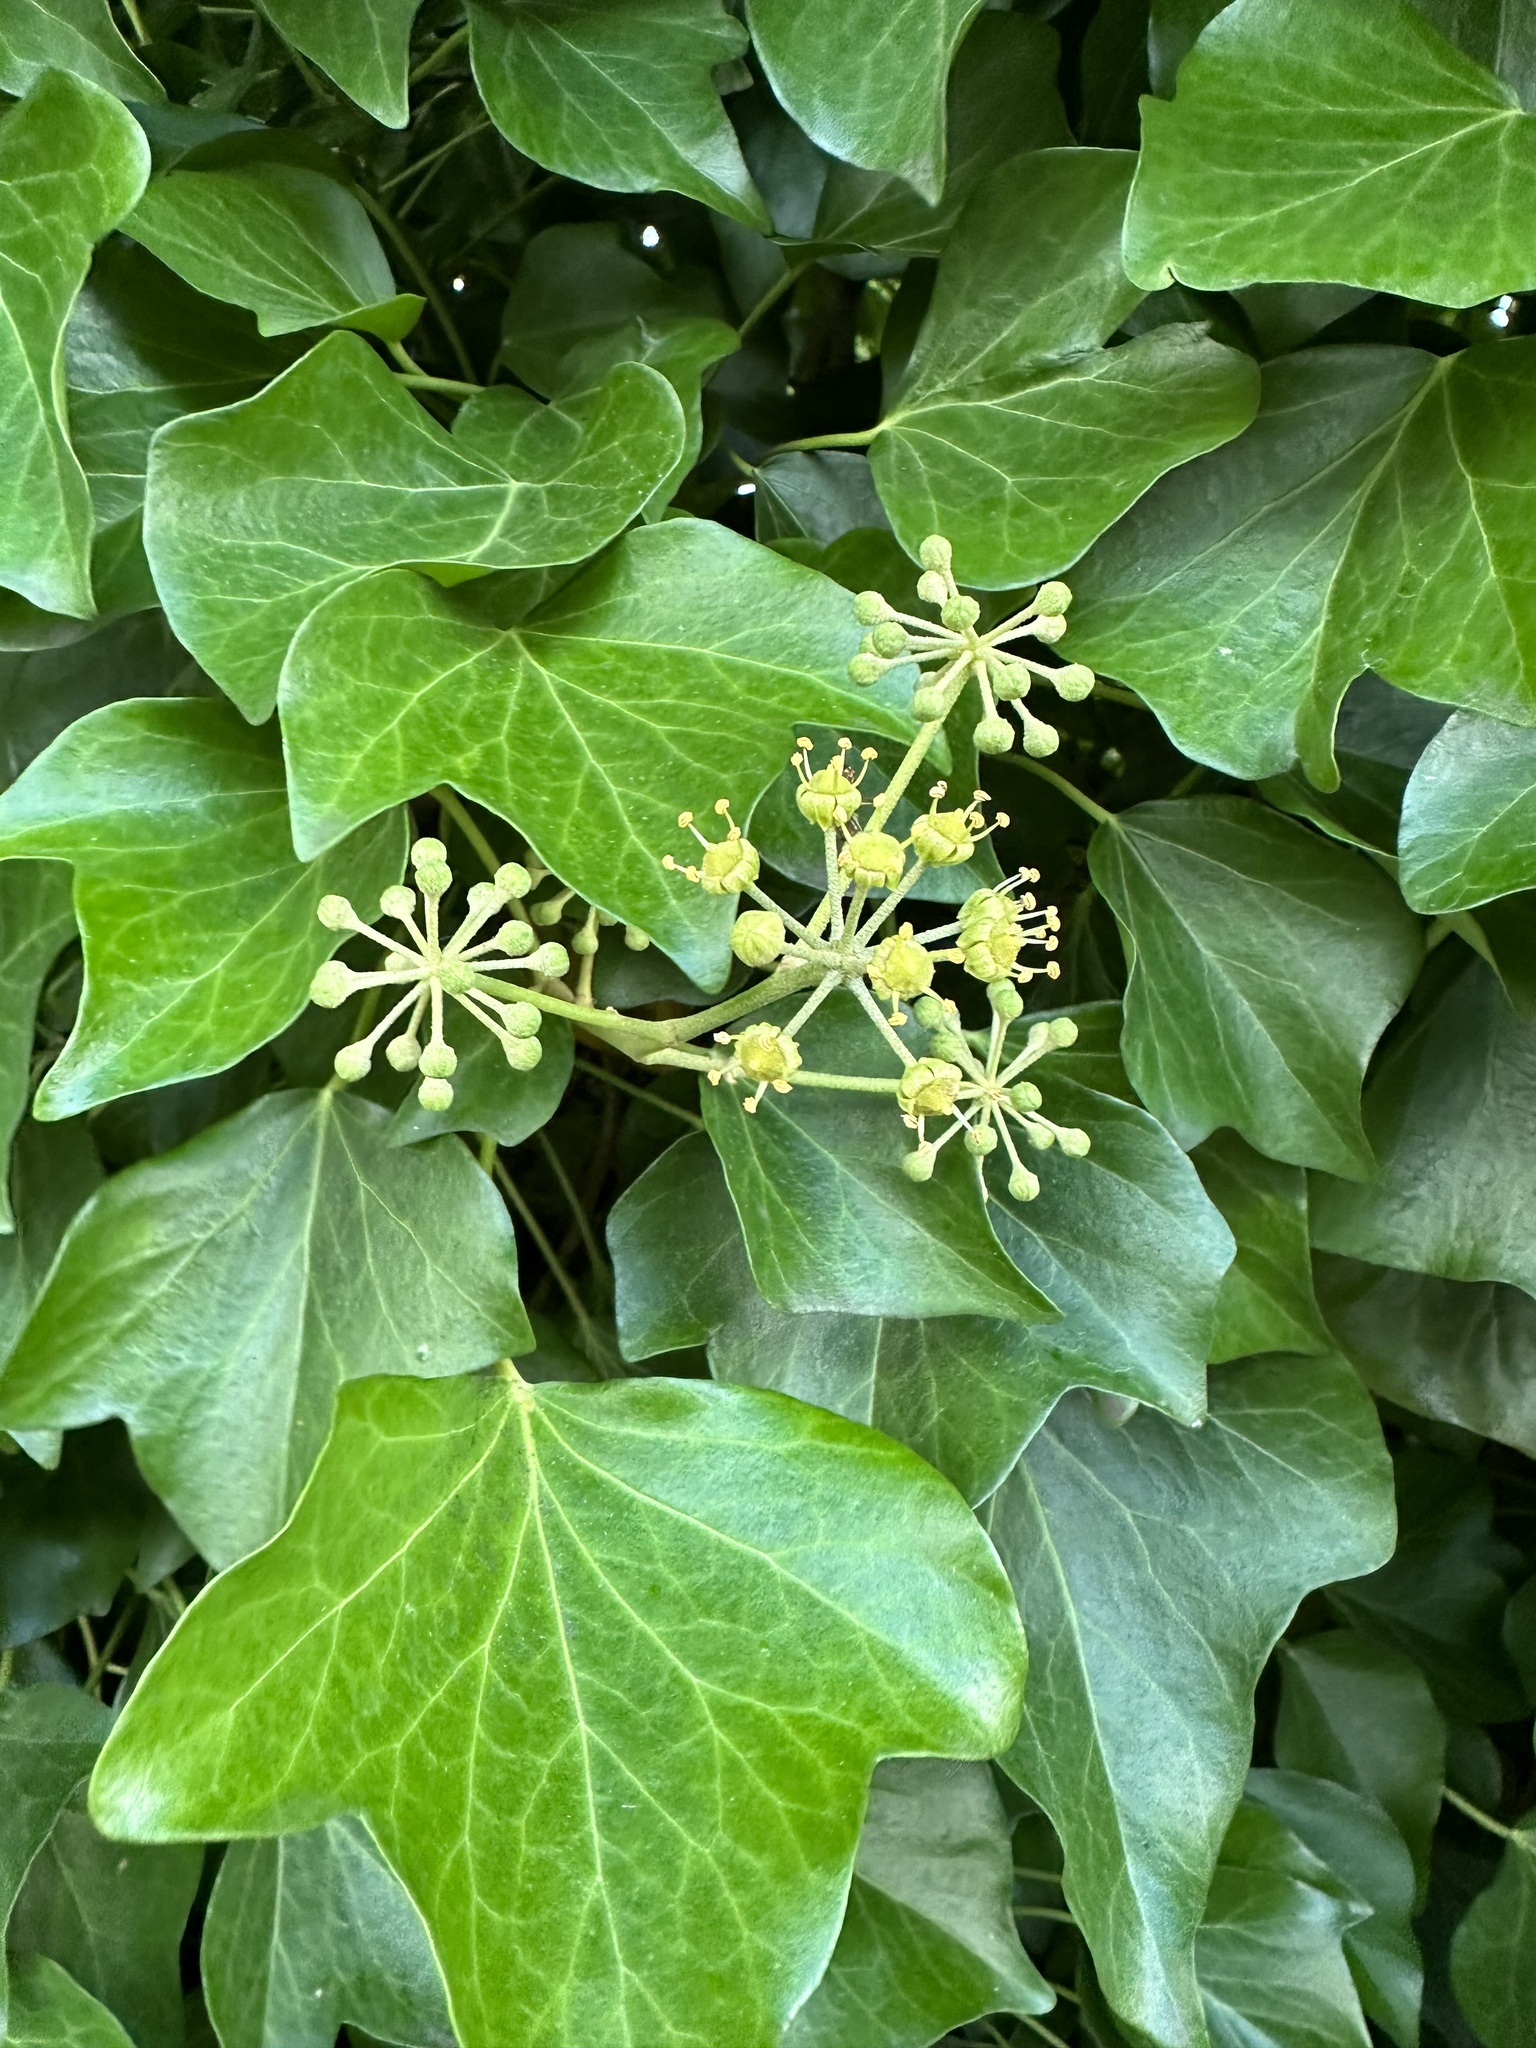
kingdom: Plantae
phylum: Tracheophyta
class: Magnoliopsida
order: Apiales
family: Araliaceae
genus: Hedera
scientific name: Hedera helix
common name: Ivy
